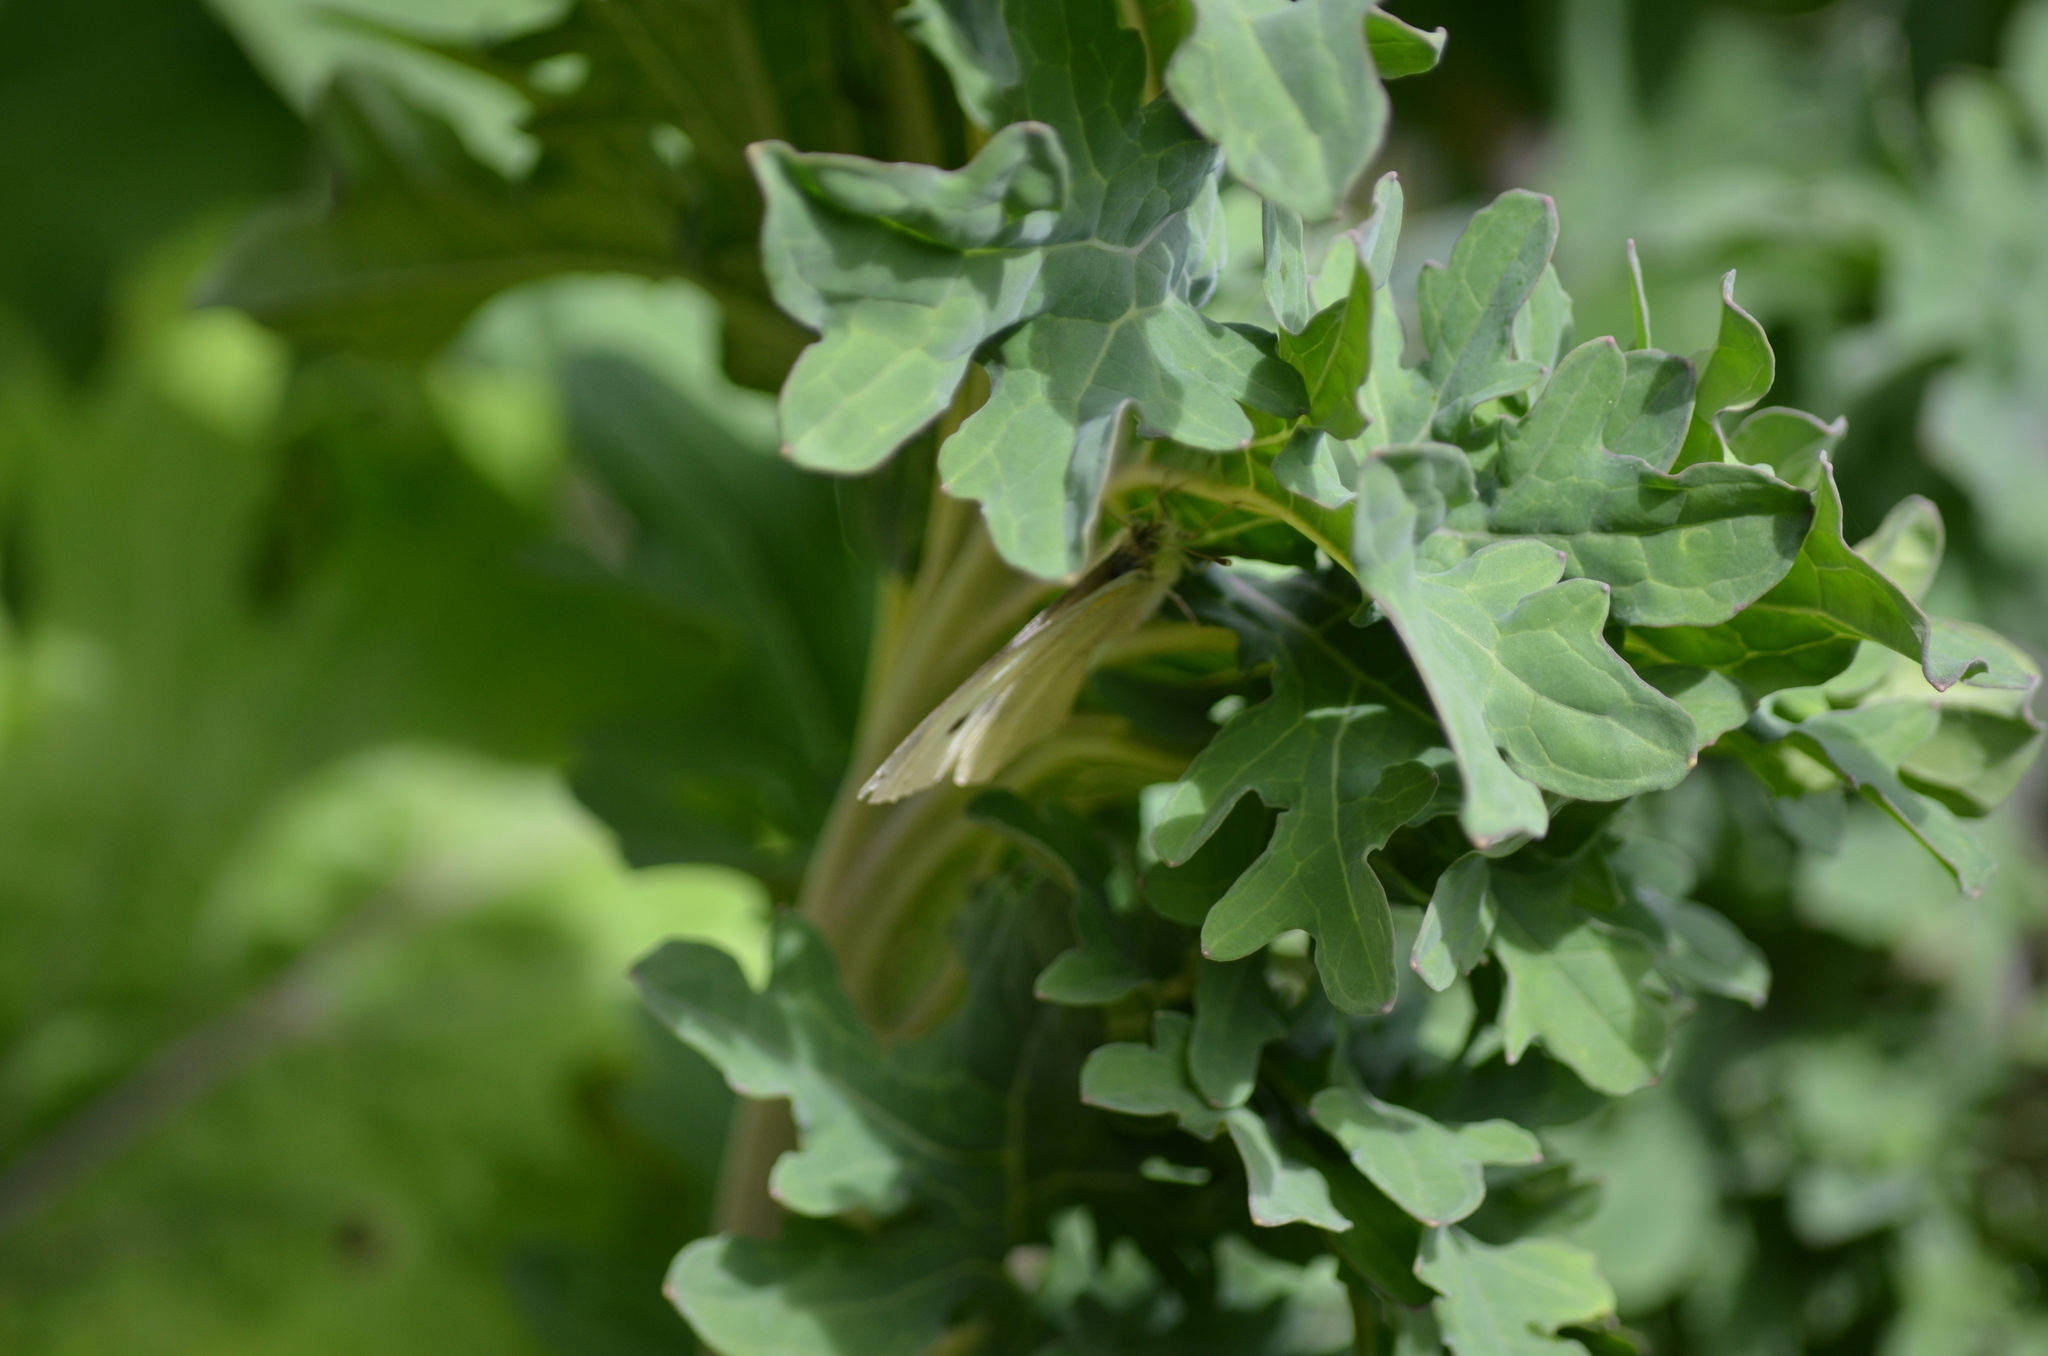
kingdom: Animalia
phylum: Arthropoda
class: Insecta
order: Lepidoptera
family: Pieridae
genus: Pieris
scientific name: Pieris rapae
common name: Small white
